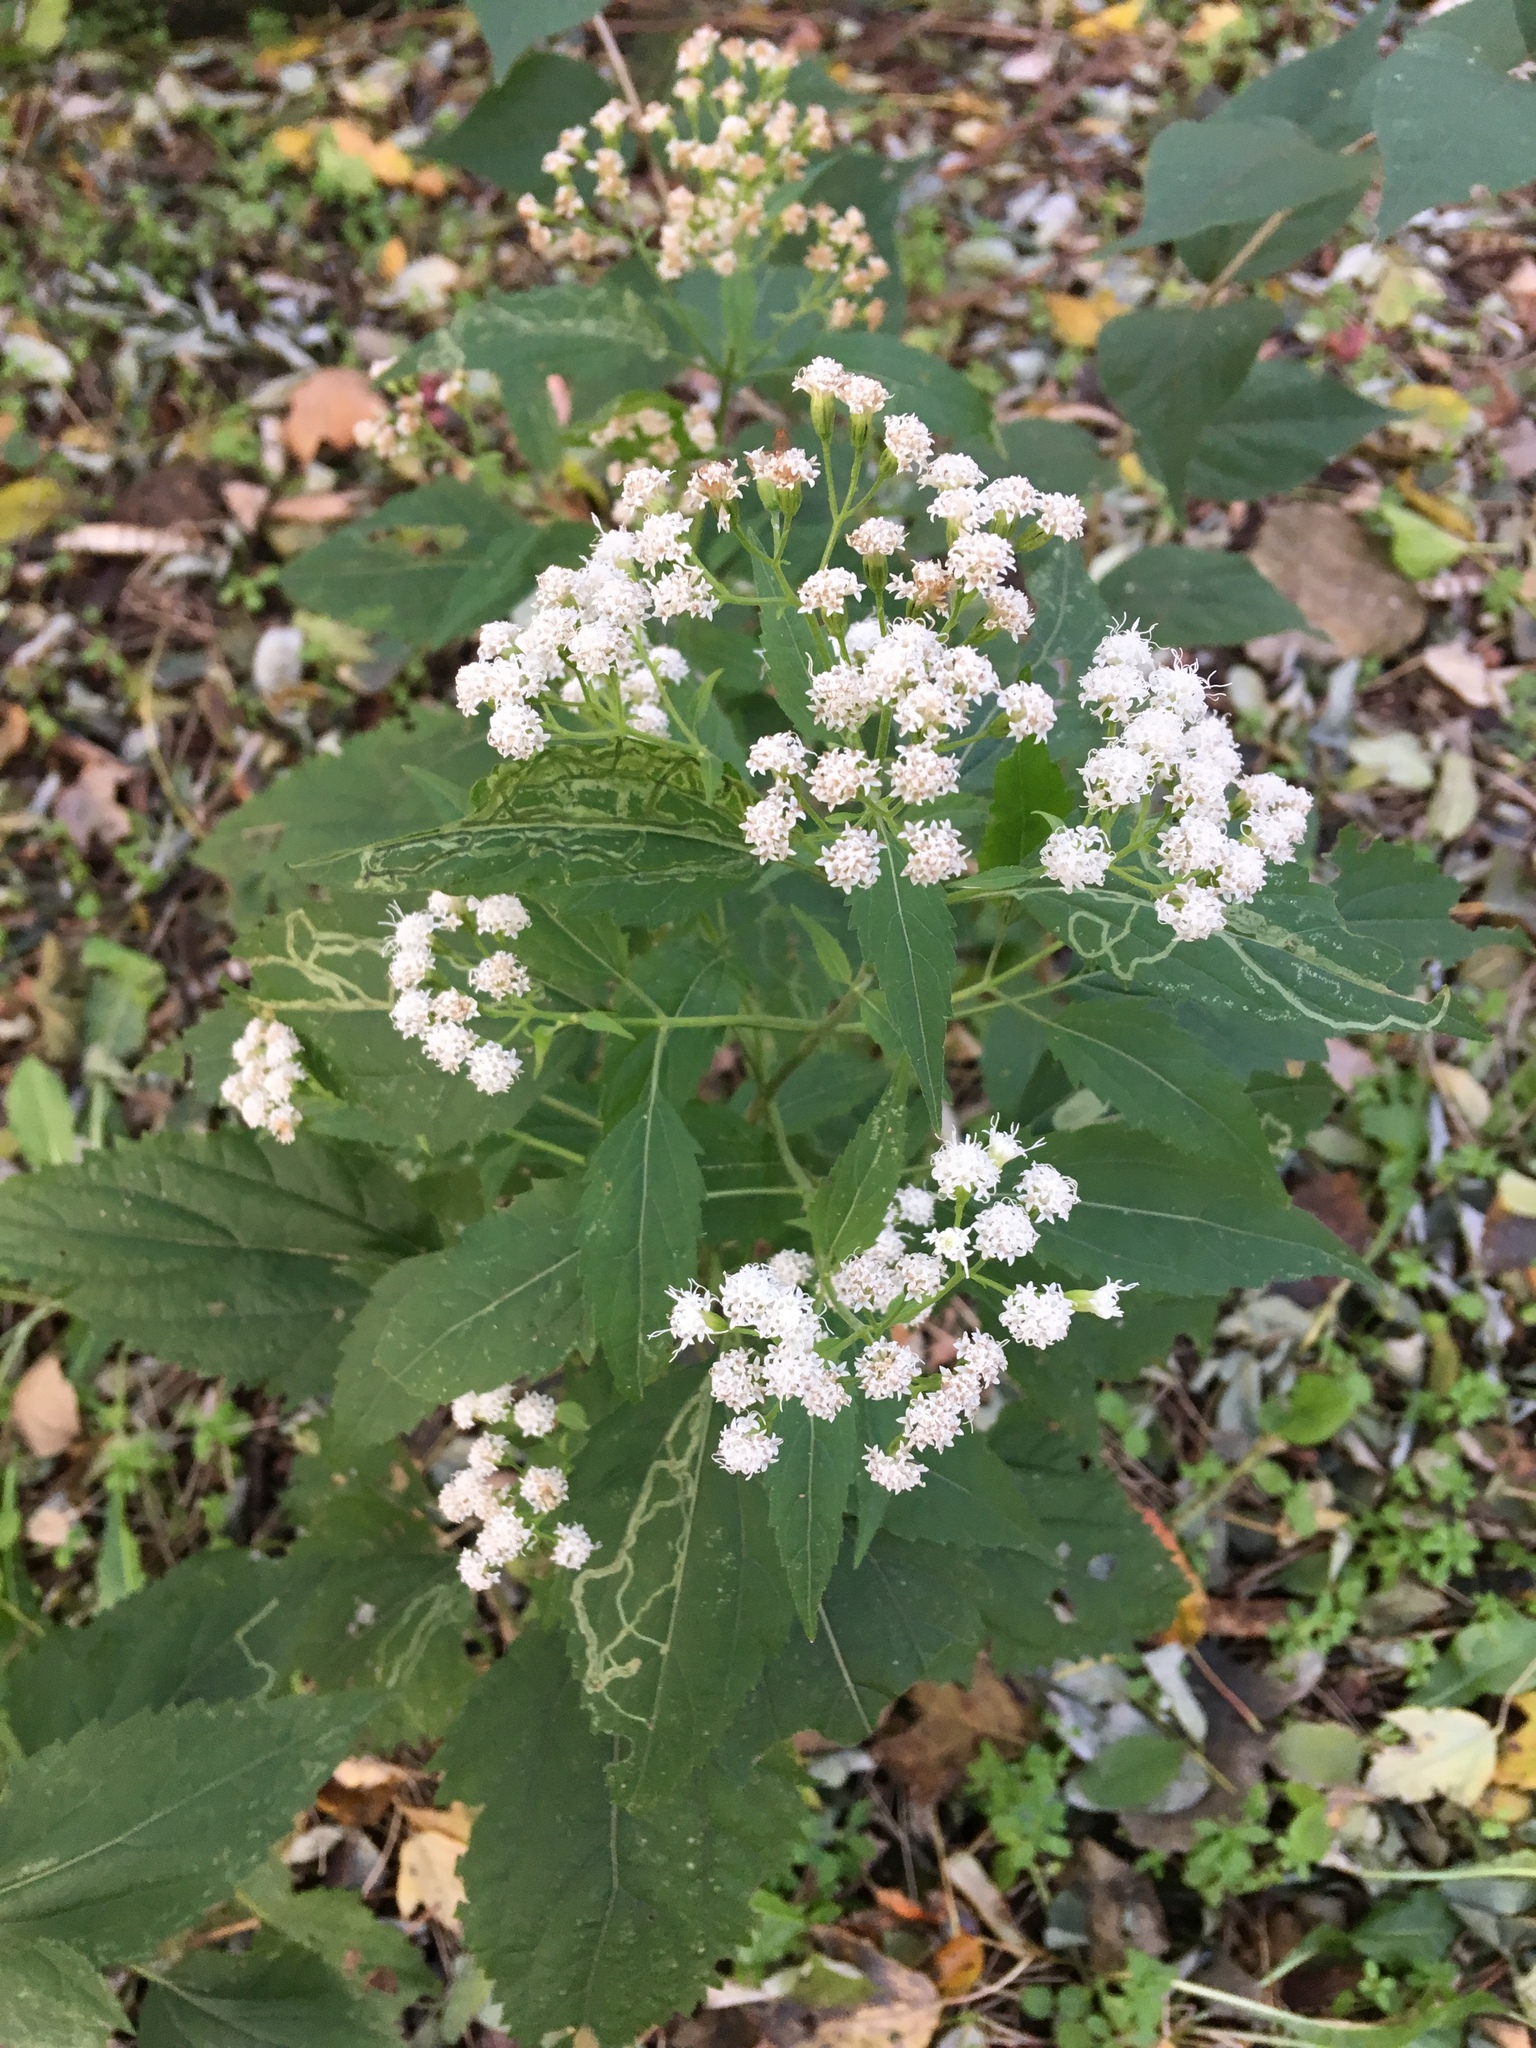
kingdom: Plantae
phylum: Tracheophyta
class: Magnoliopsida
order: Asterales
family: Asteraceae
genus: Ageratina
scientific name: Ageratina altissima
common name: White snakeroot
